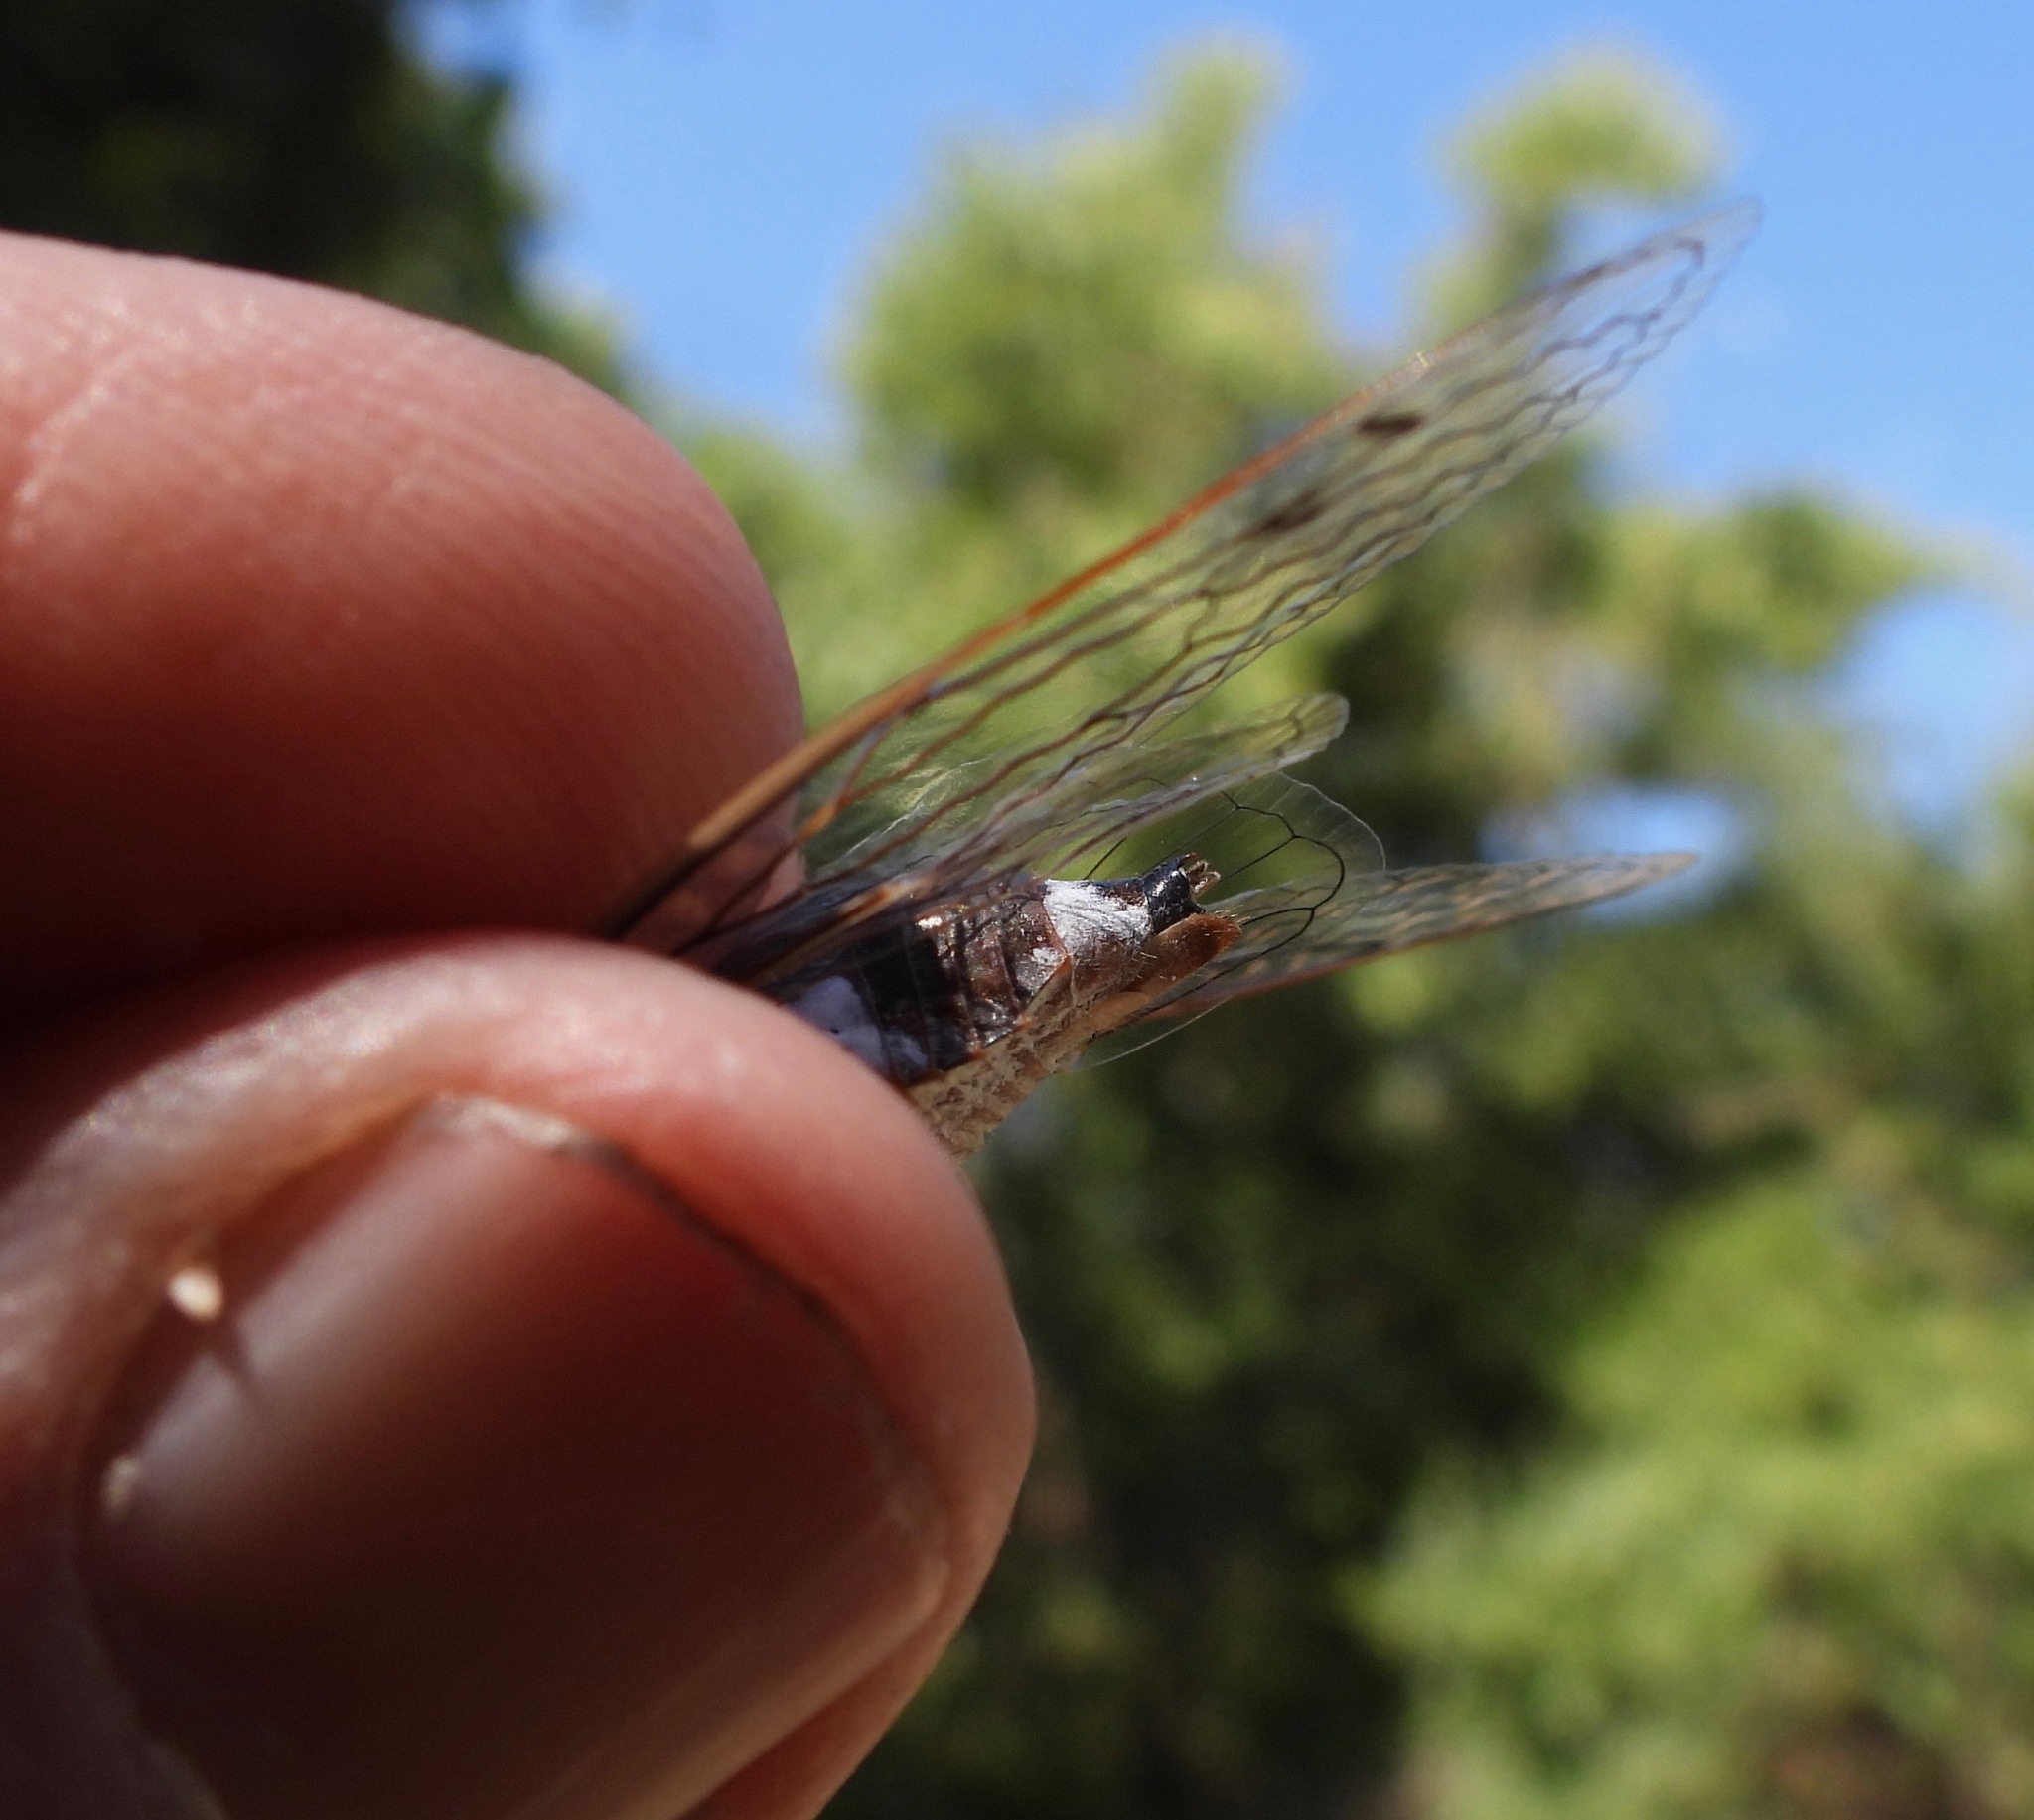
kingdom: Animalia
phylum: Arthropoda
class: Insecta
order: Hemiptera
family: Cicadidae
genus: Hadoa
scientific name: Hadoa inaudita
